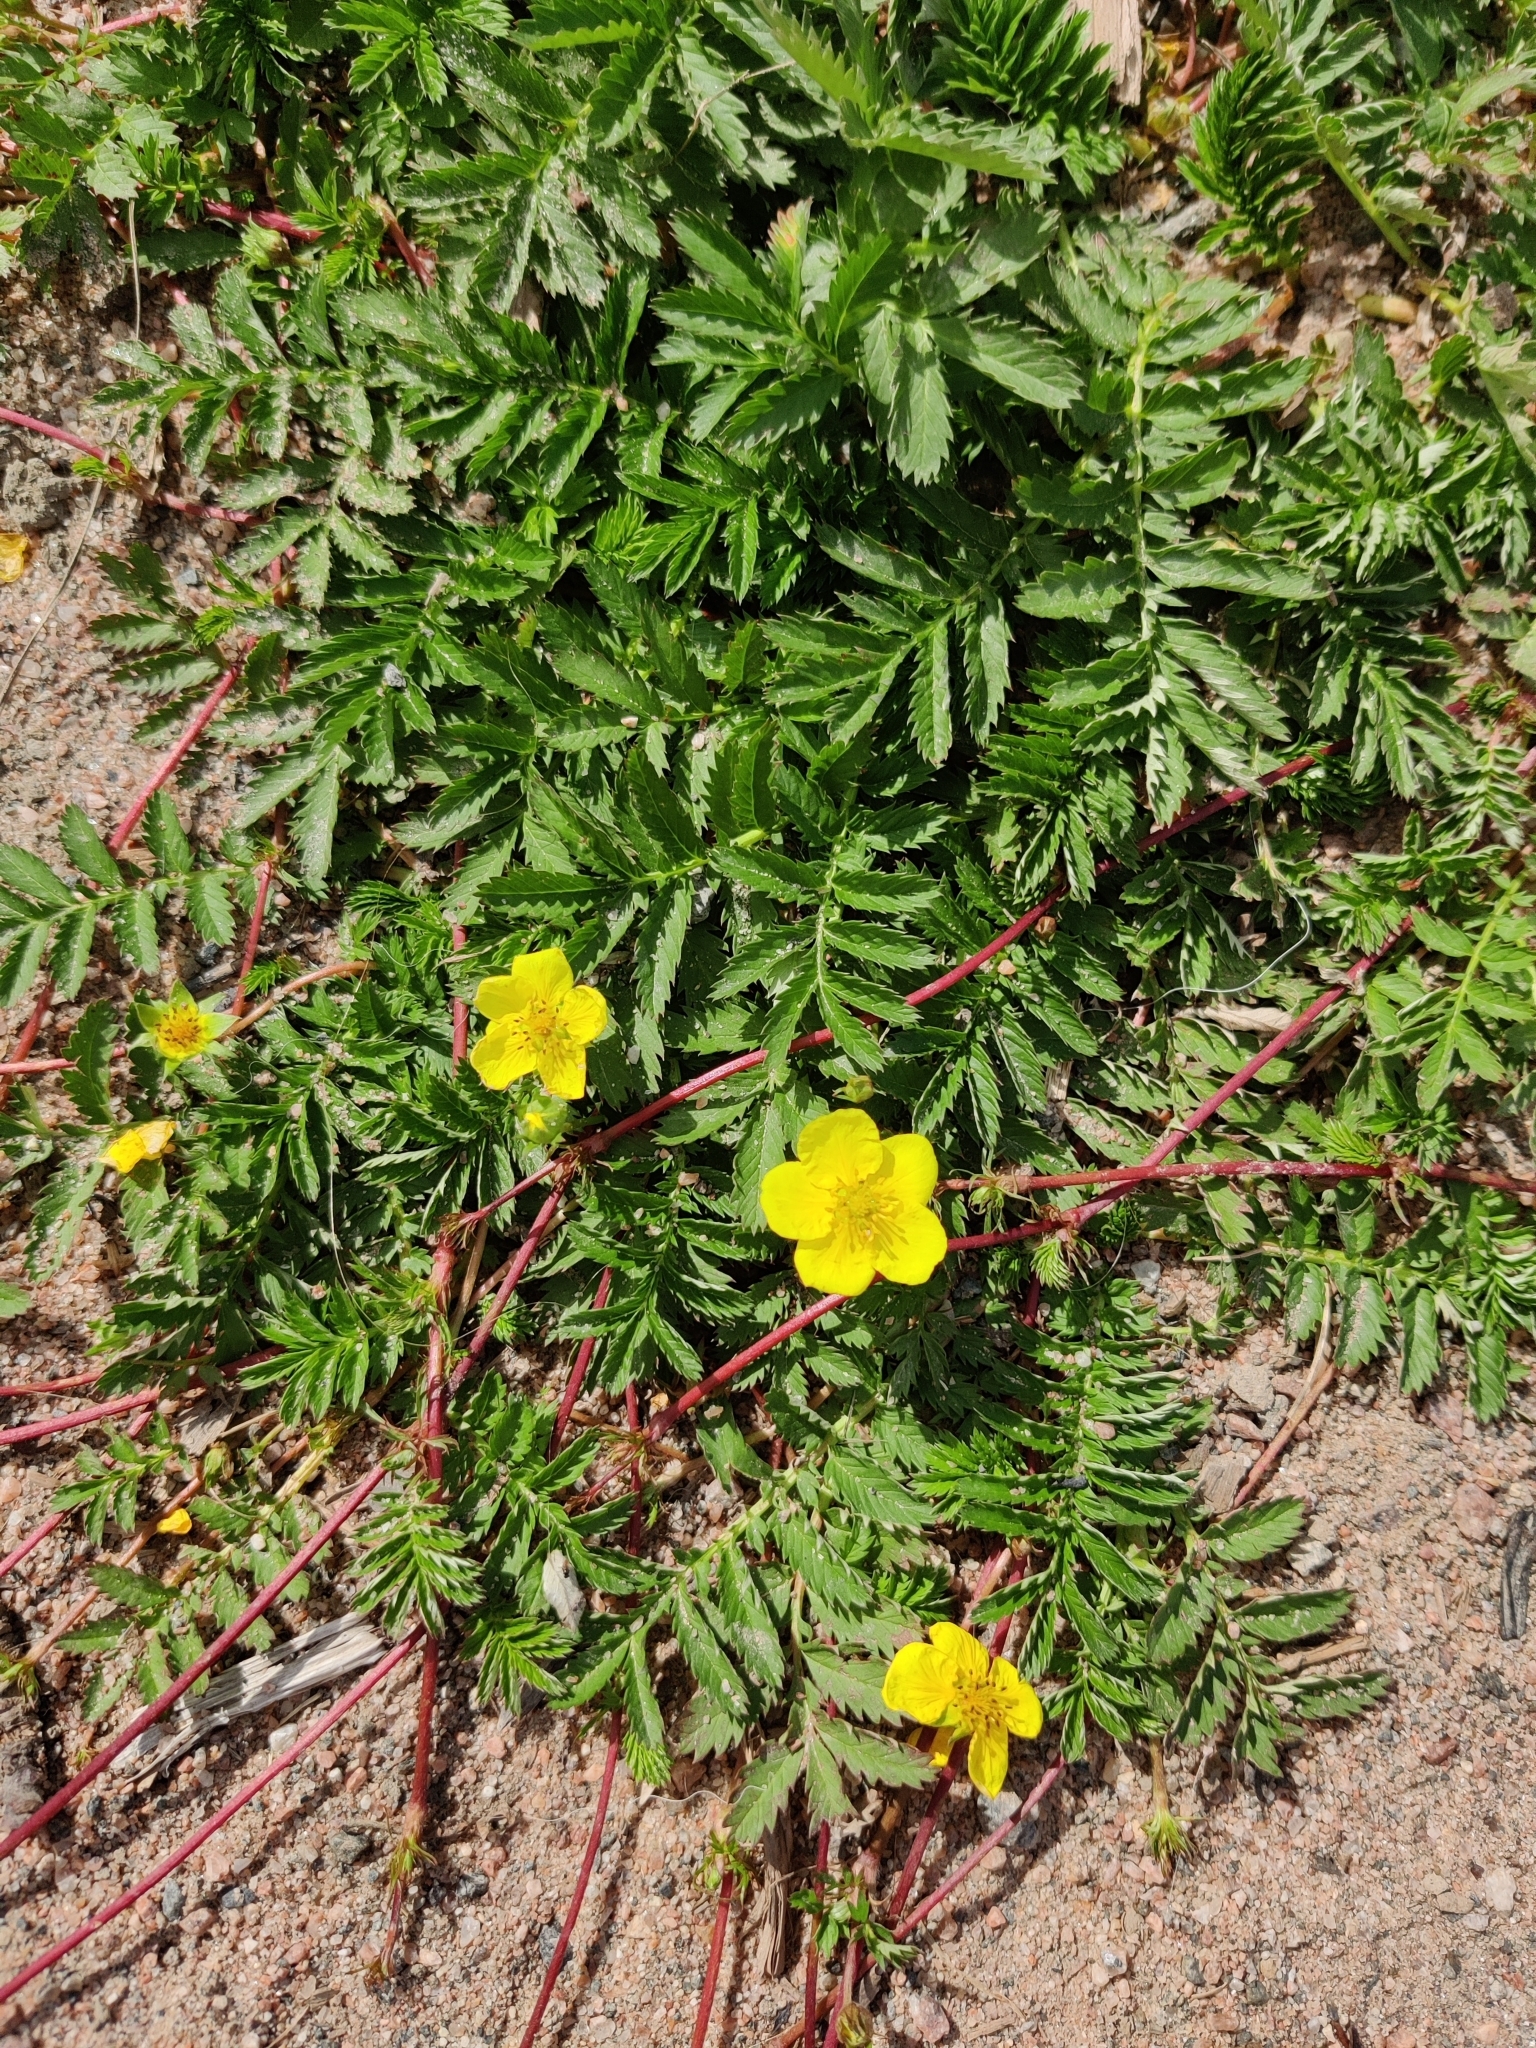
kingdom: Plantae
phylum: Tracheophyta
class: Magnoliopsida
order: Rosales
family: Rosaceae
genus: Argentina
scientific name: Argentina anserina
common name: Common silverweed
